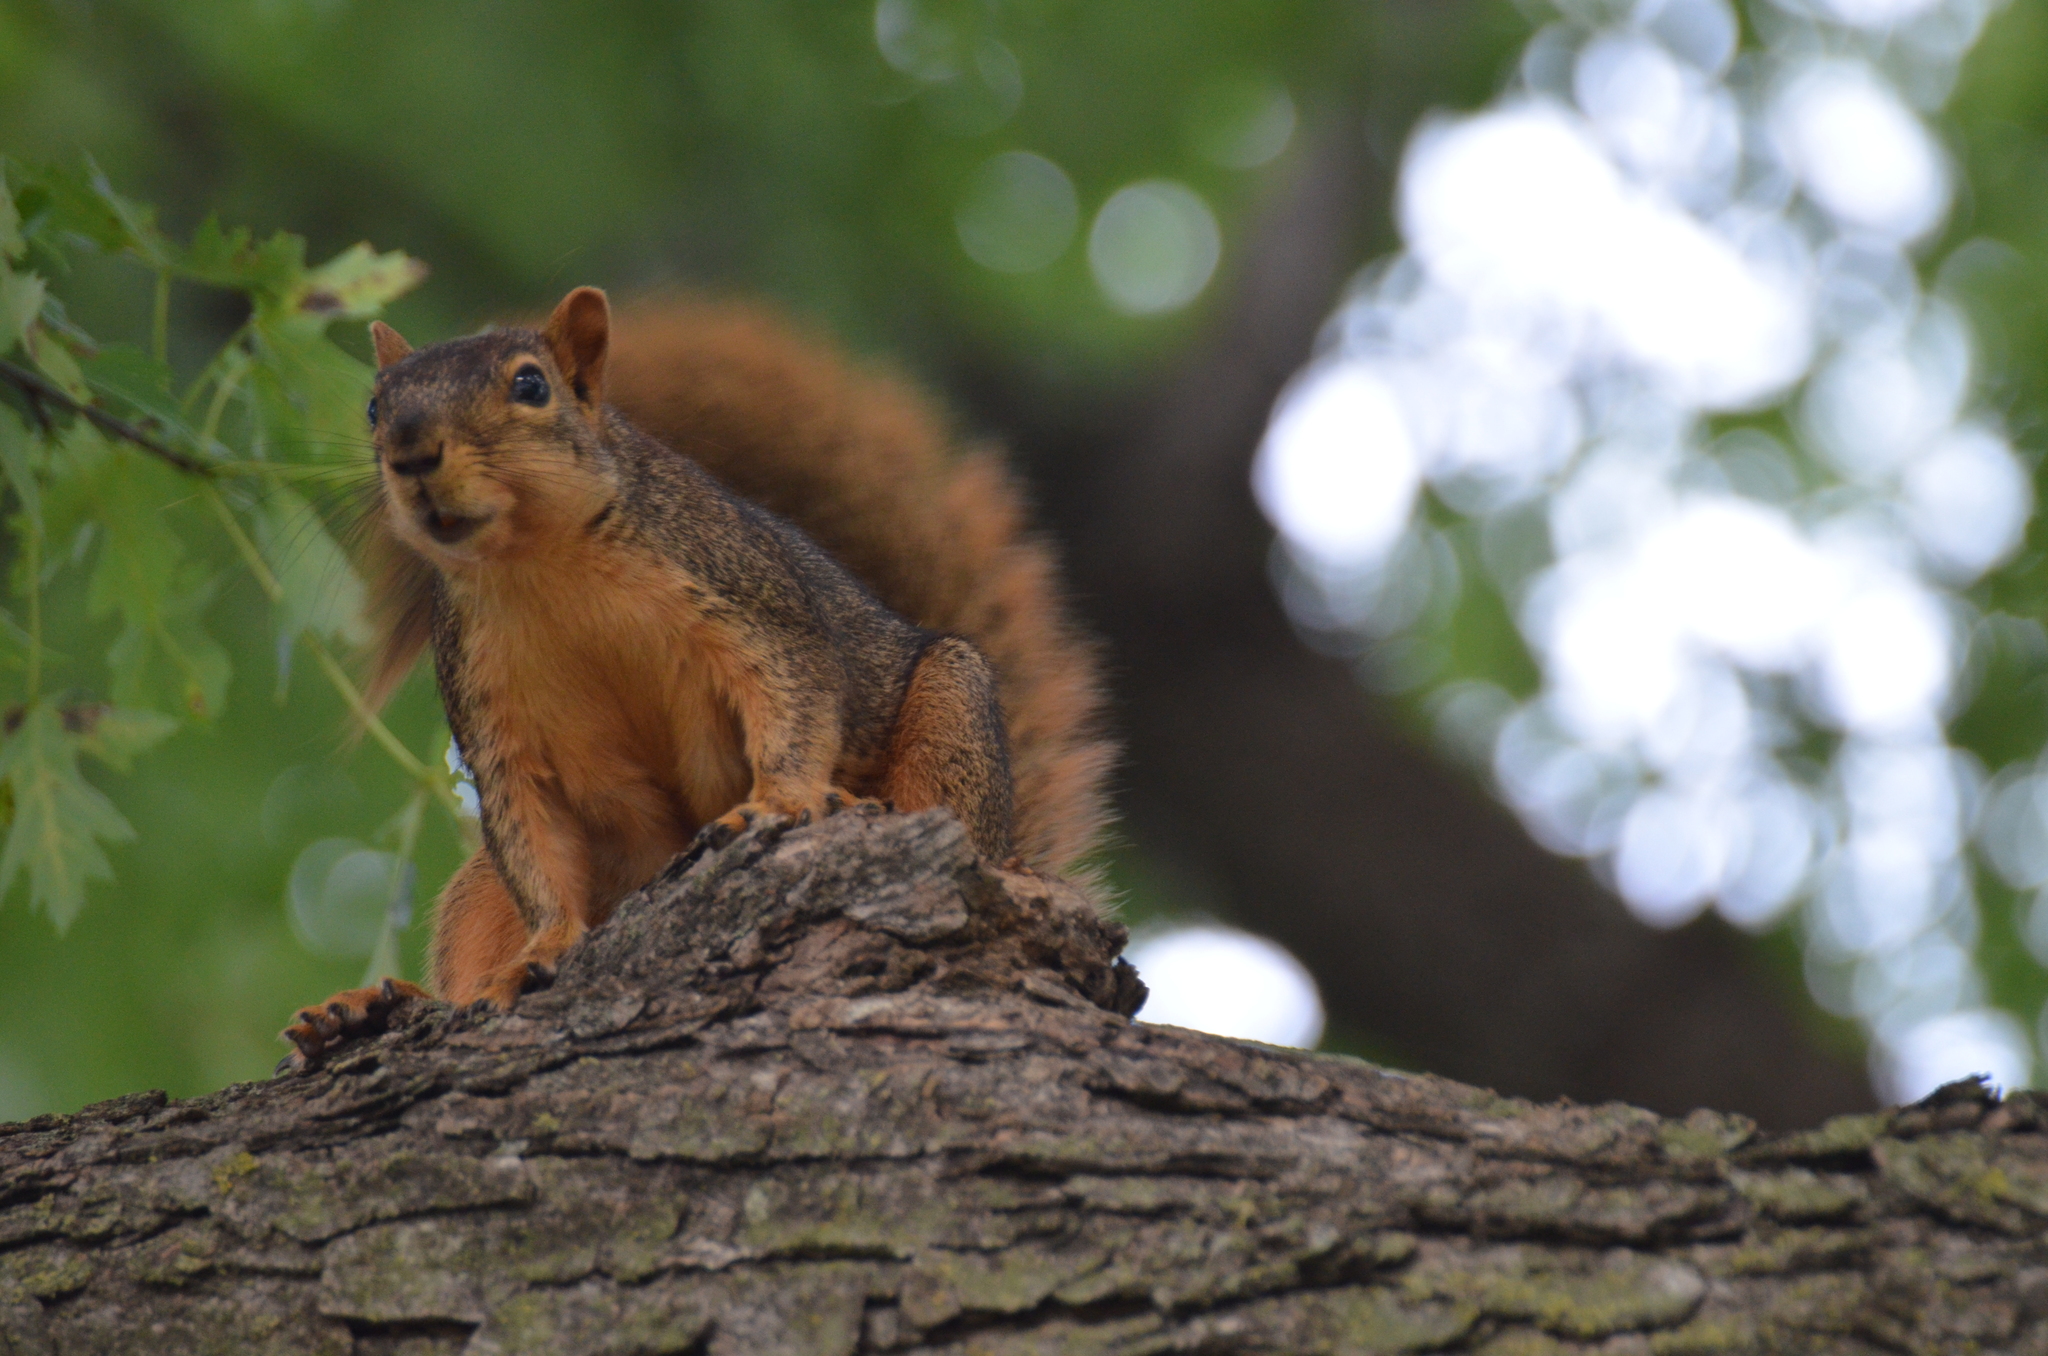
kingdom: Animalia
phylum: Chordata
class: Mammalia
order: Rodentia
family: Sciuridae
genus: Sciurus
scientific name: Sciurus niger
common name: Fox squirrel
